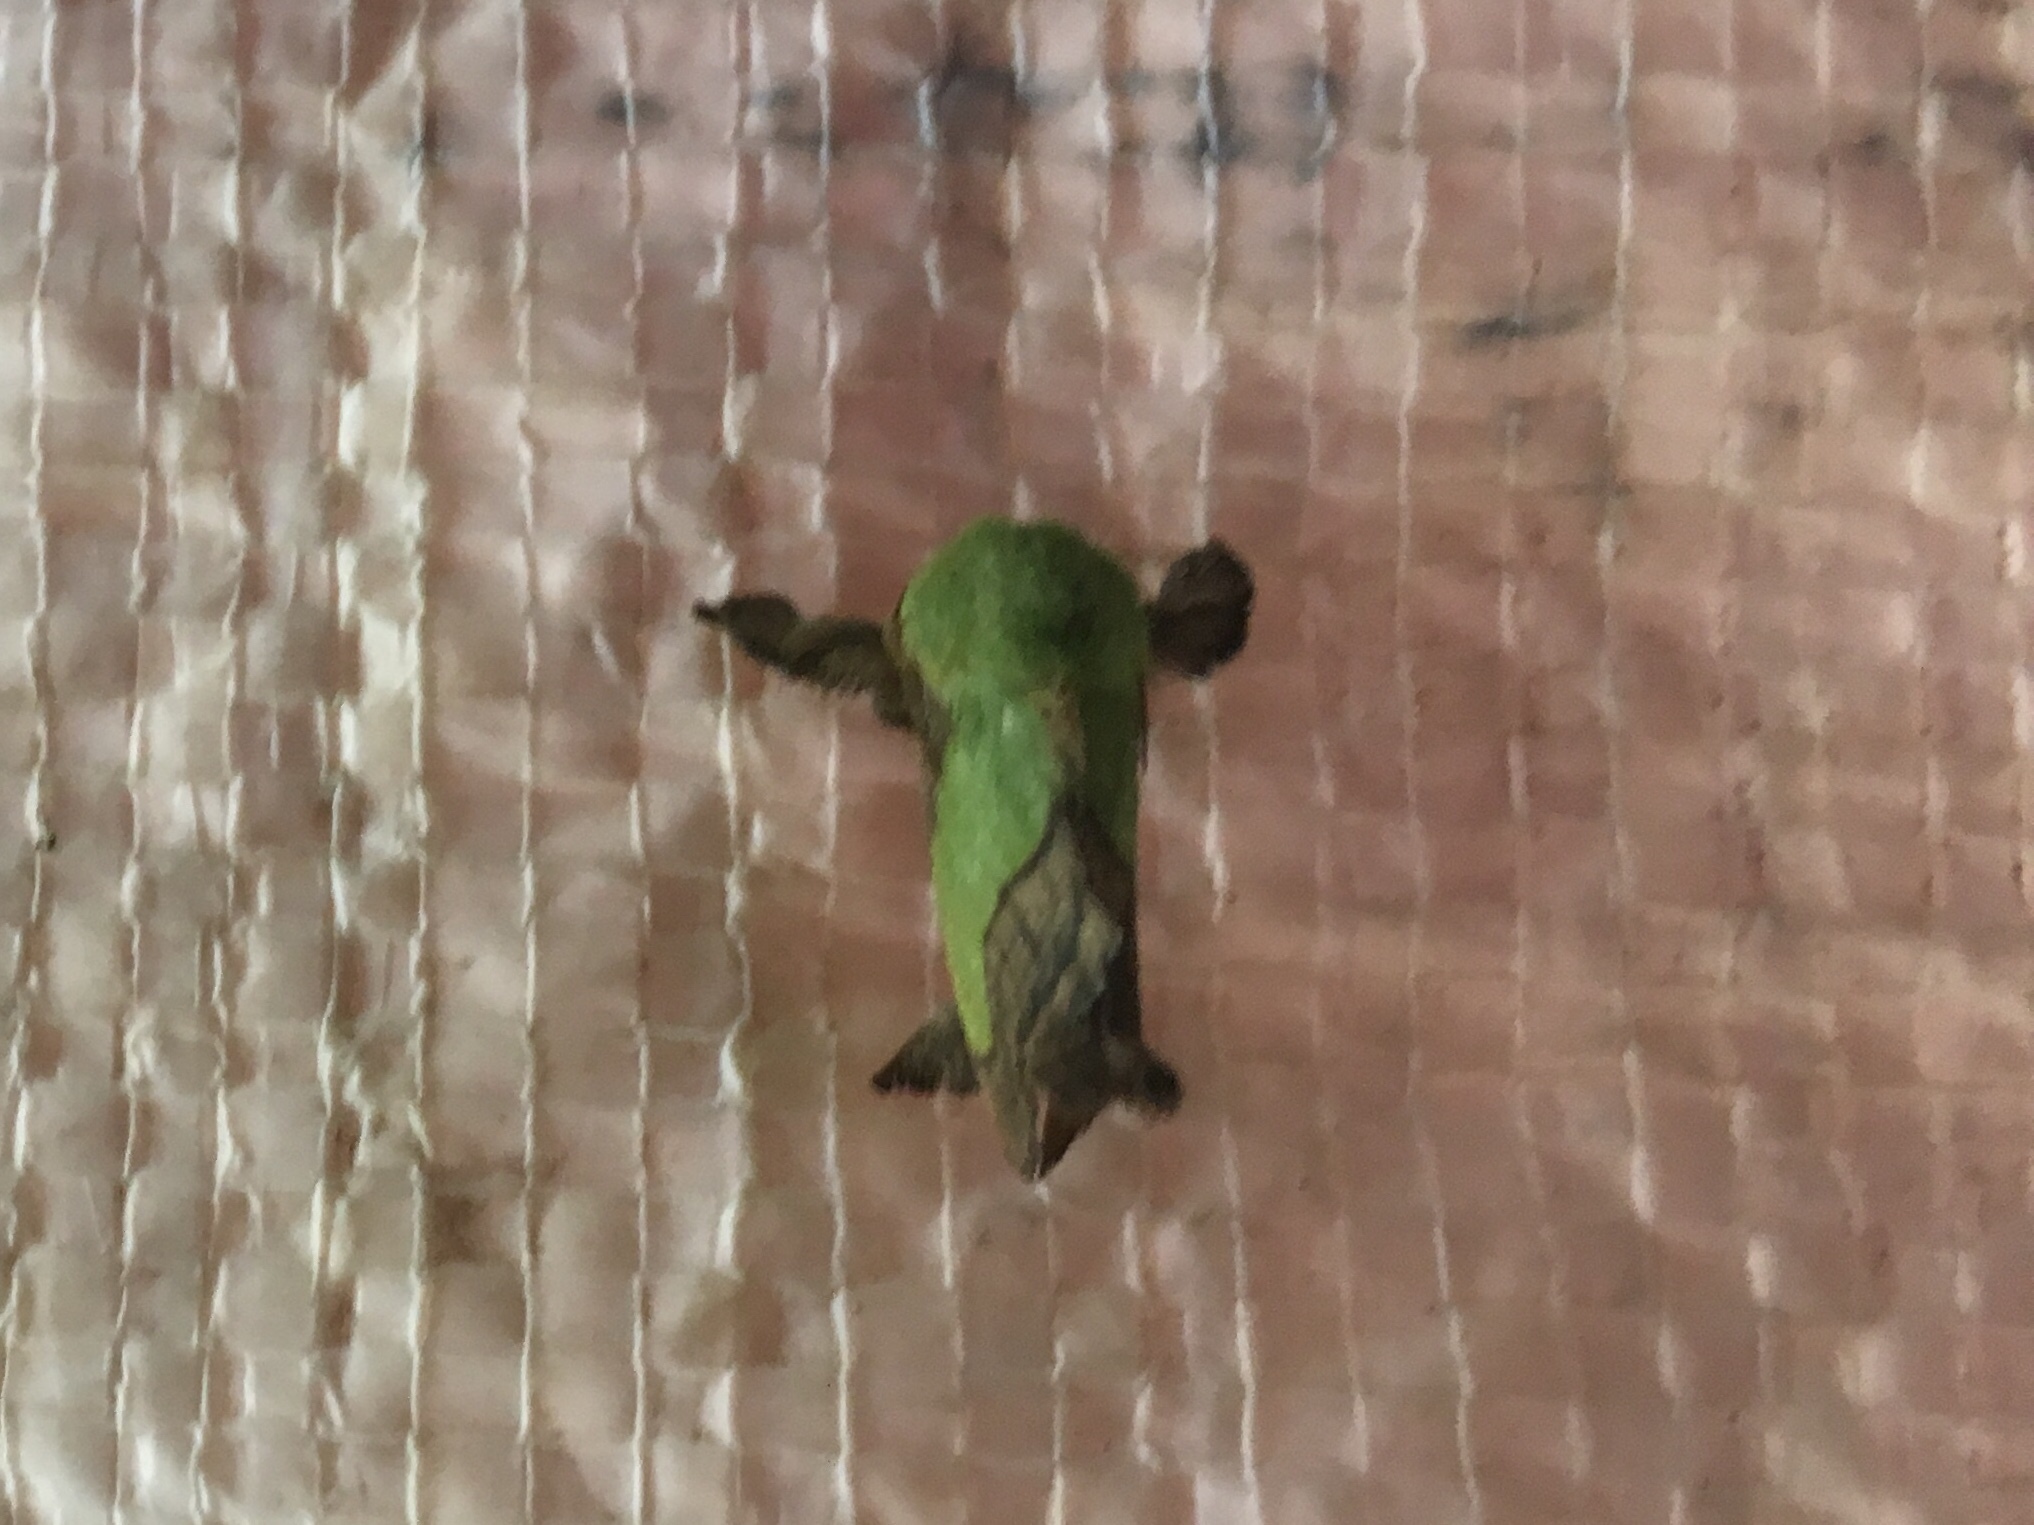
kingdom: Animalia
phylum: Arthropoda
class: Insecta
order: Lepidoptera
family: Limacodidae
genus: Parasa
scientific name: Parasa chloris
